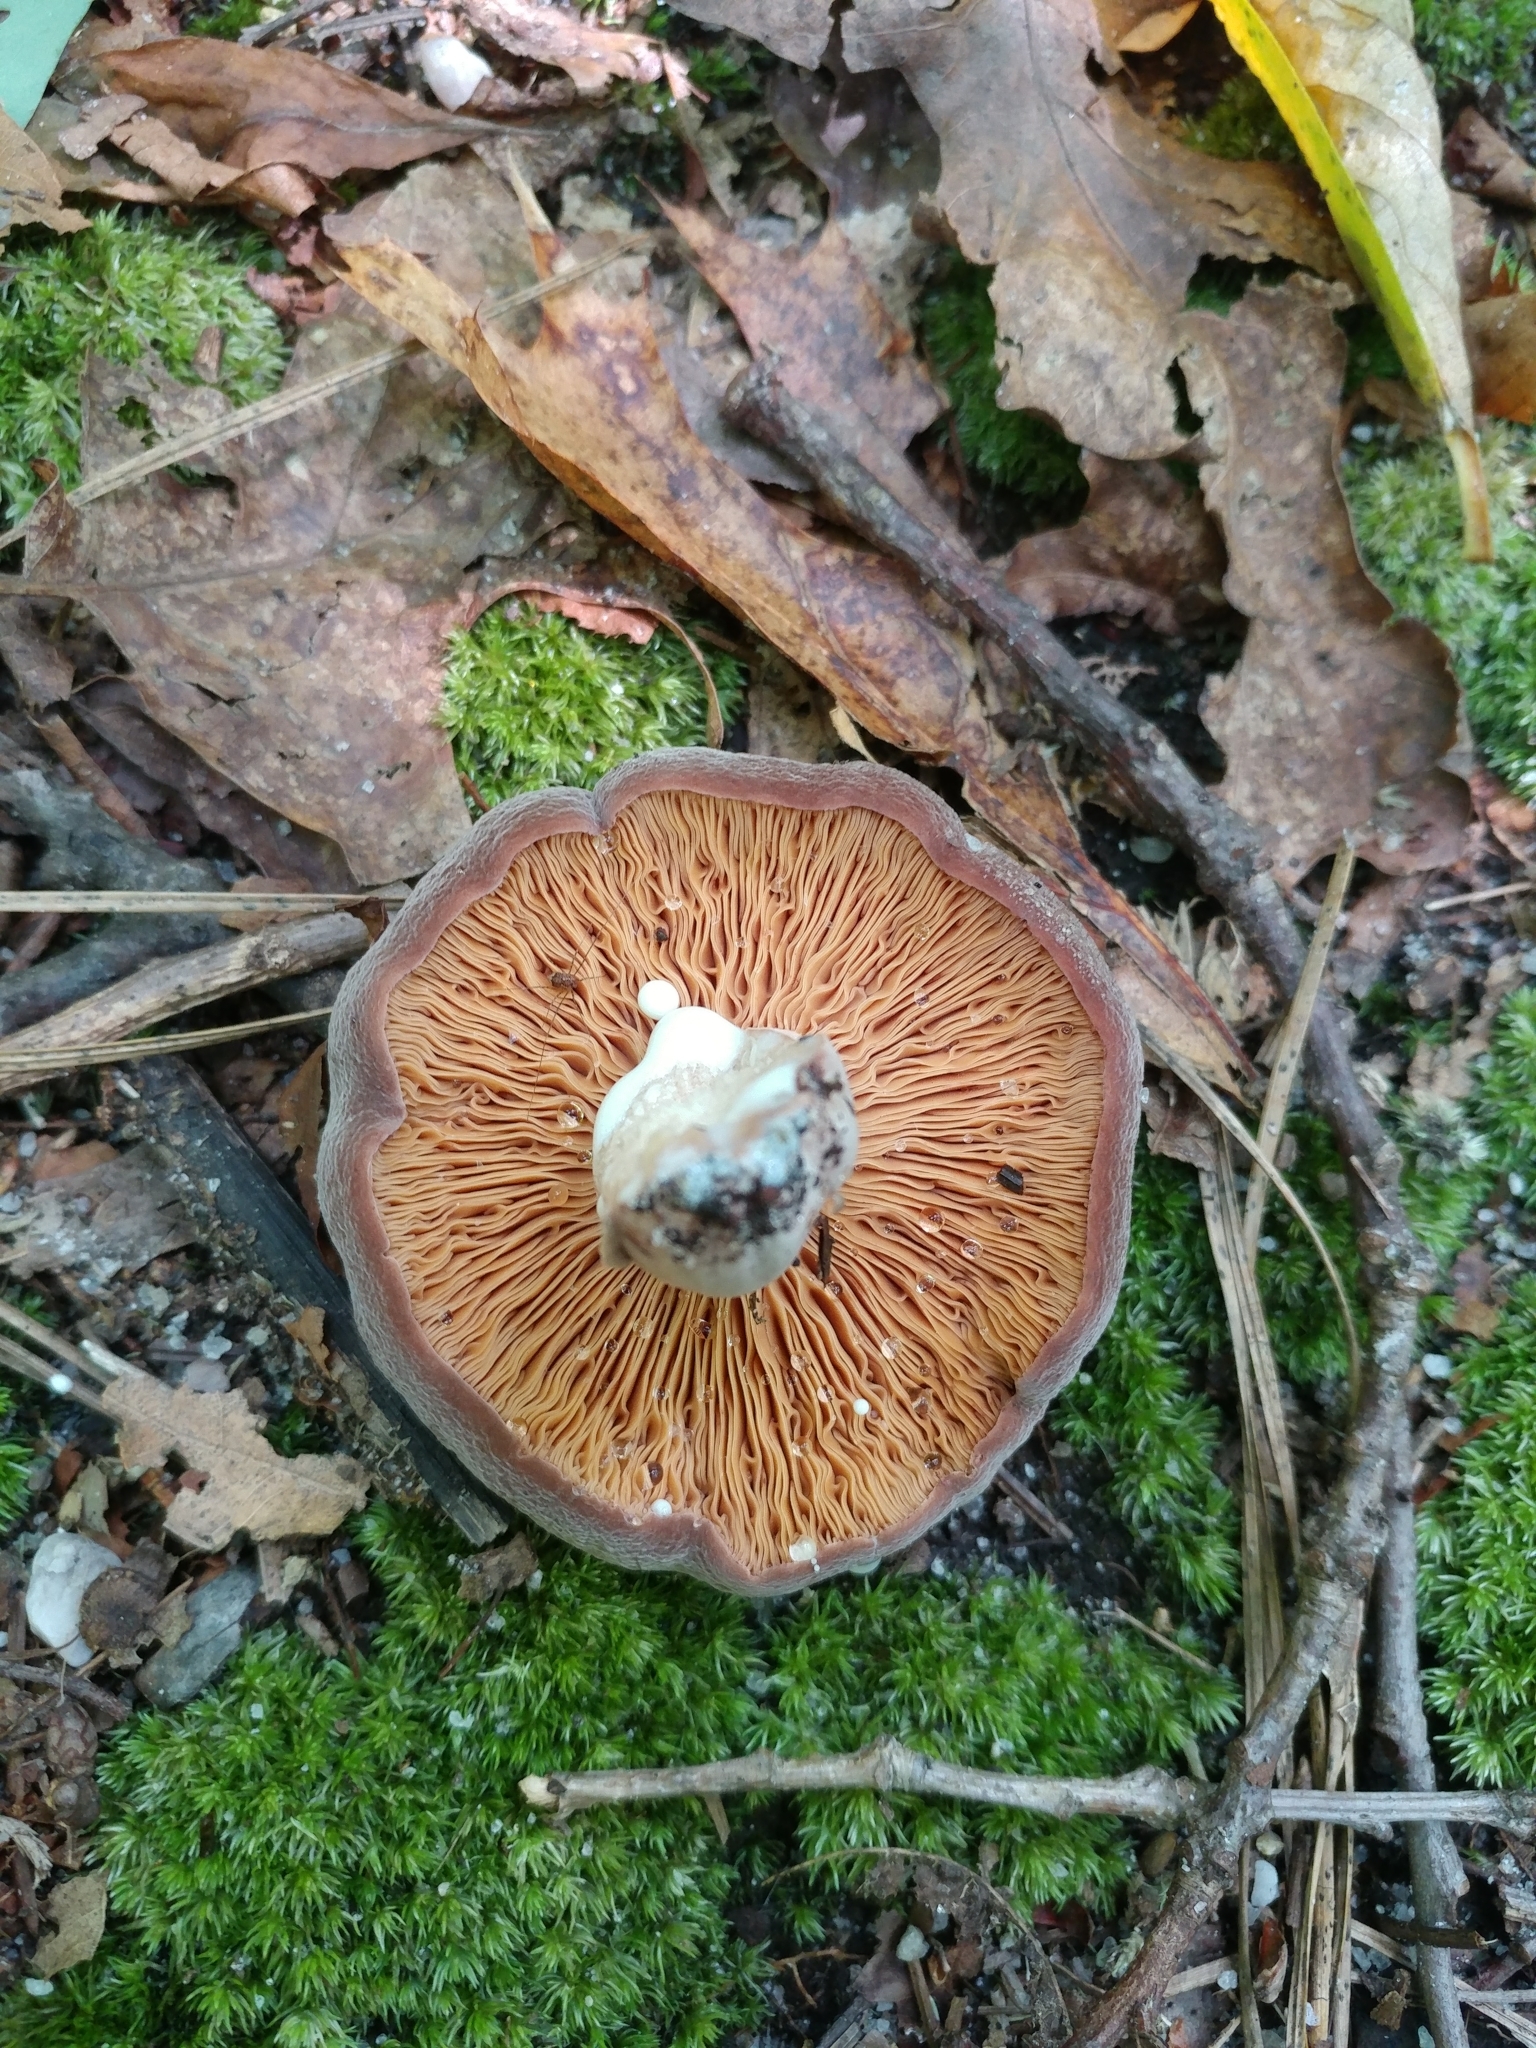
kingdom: Fungi
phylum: Basidiomycota
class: Agaricomycetes
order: Russulales
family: Russulaceae
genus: Lactarius
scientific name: Lactarius corrugis
